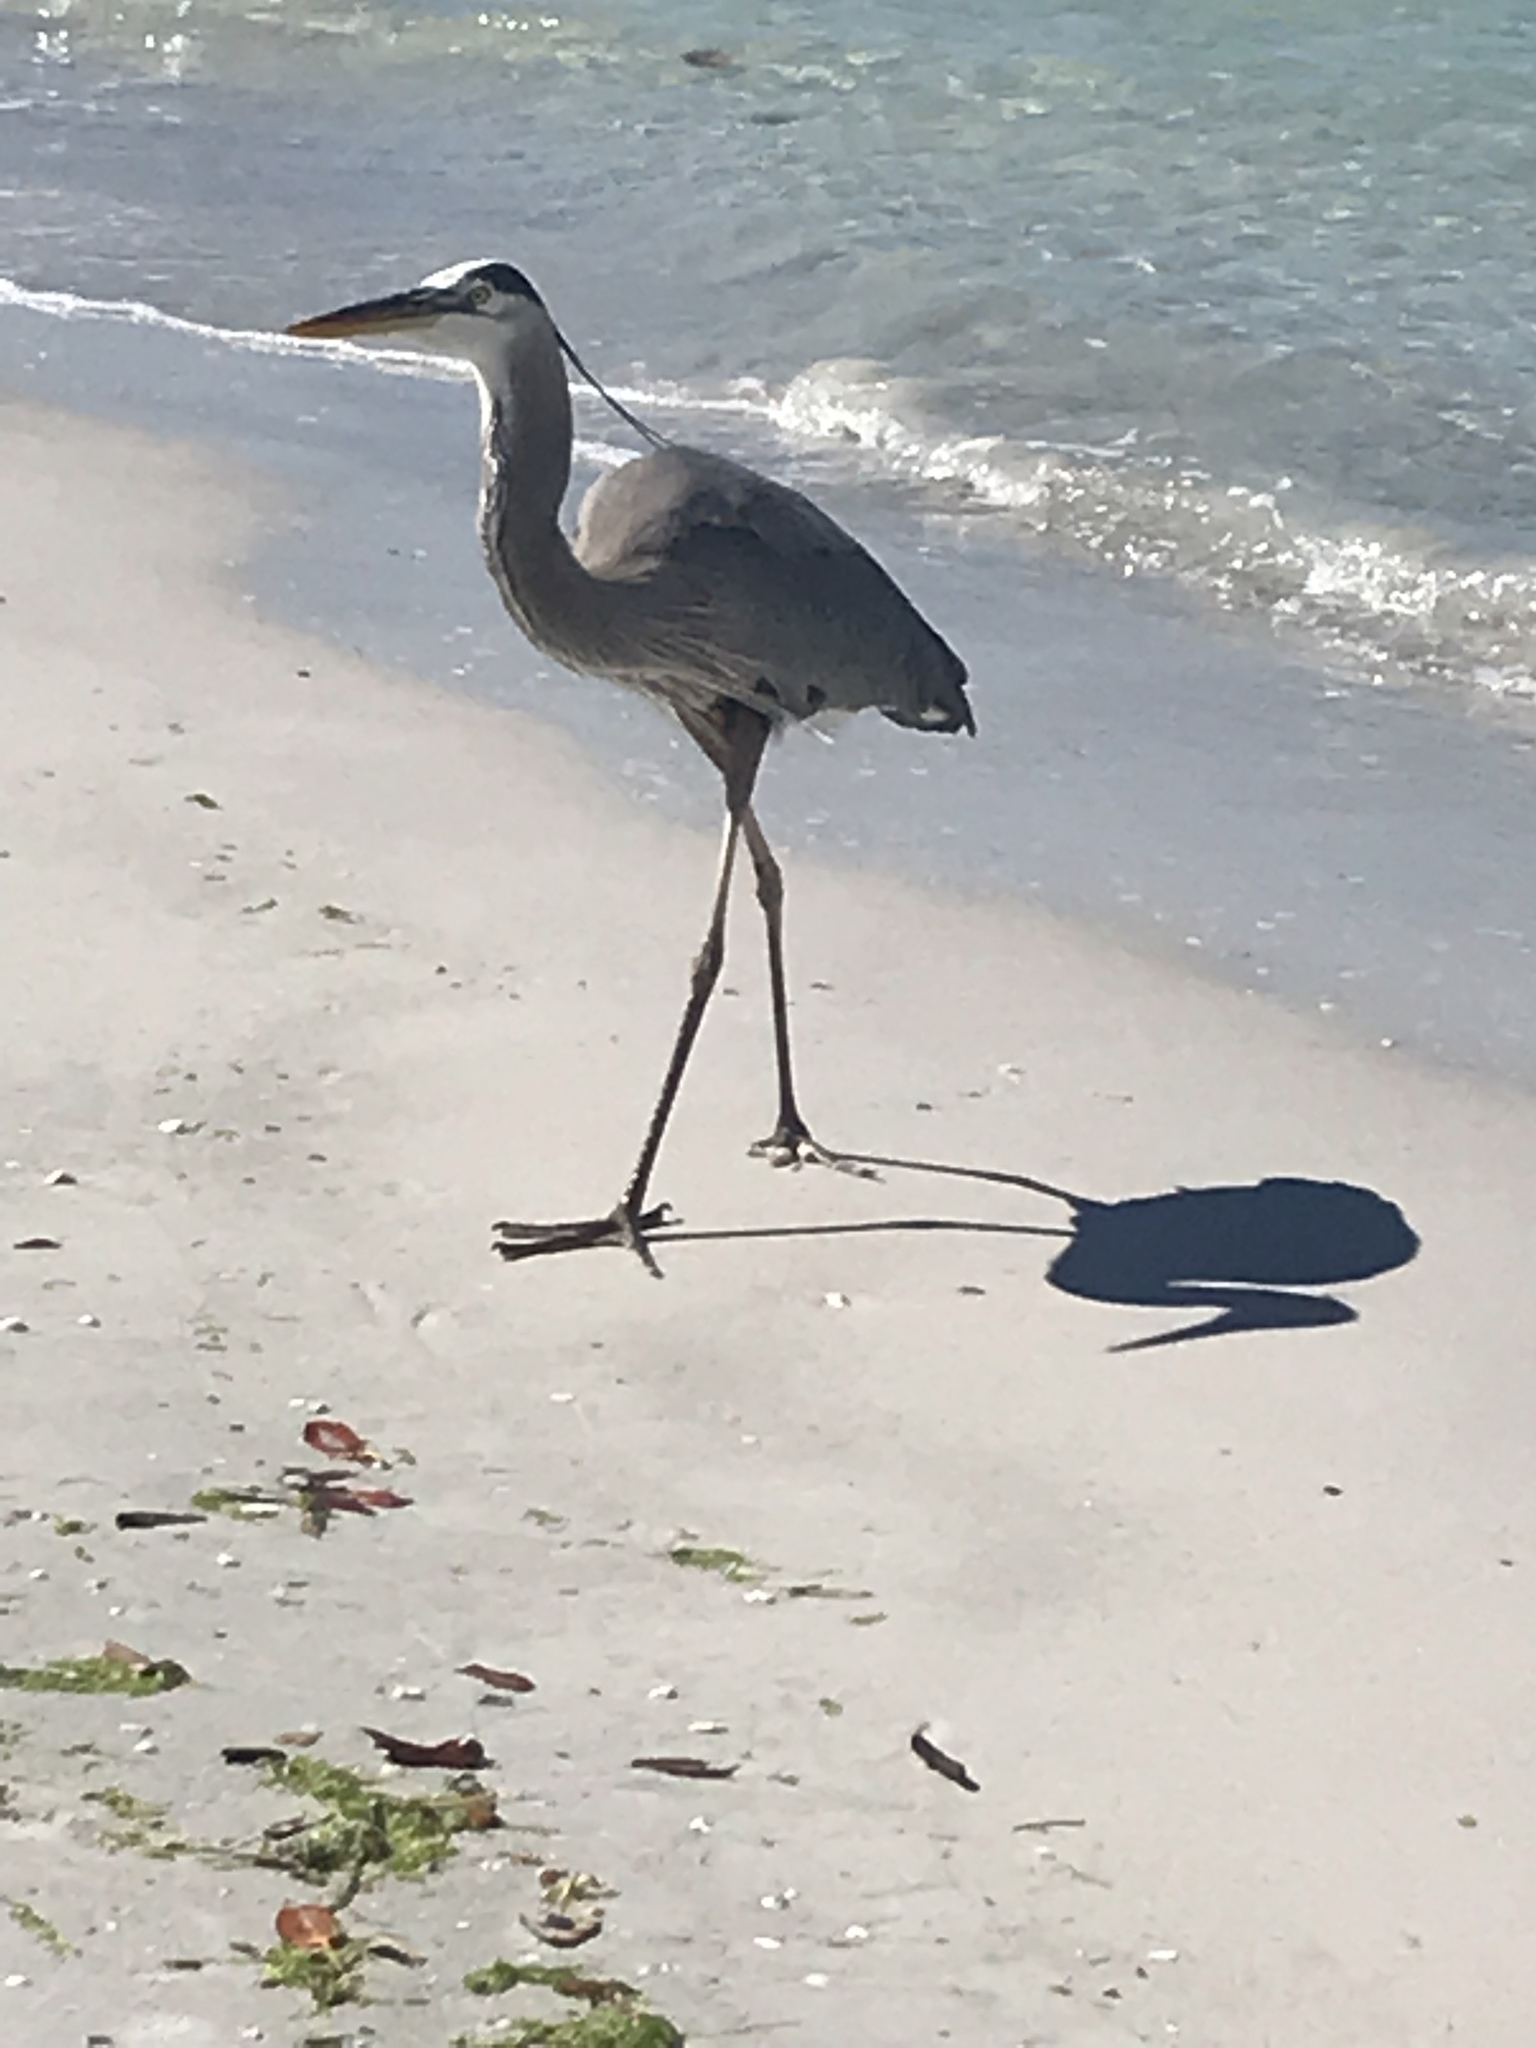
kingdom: Animalia
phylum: Chordata
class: Aves
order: Pelecaniformes
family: Ardeidae
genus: Ardea
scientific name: Ardea herodias
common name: Great blue heron
